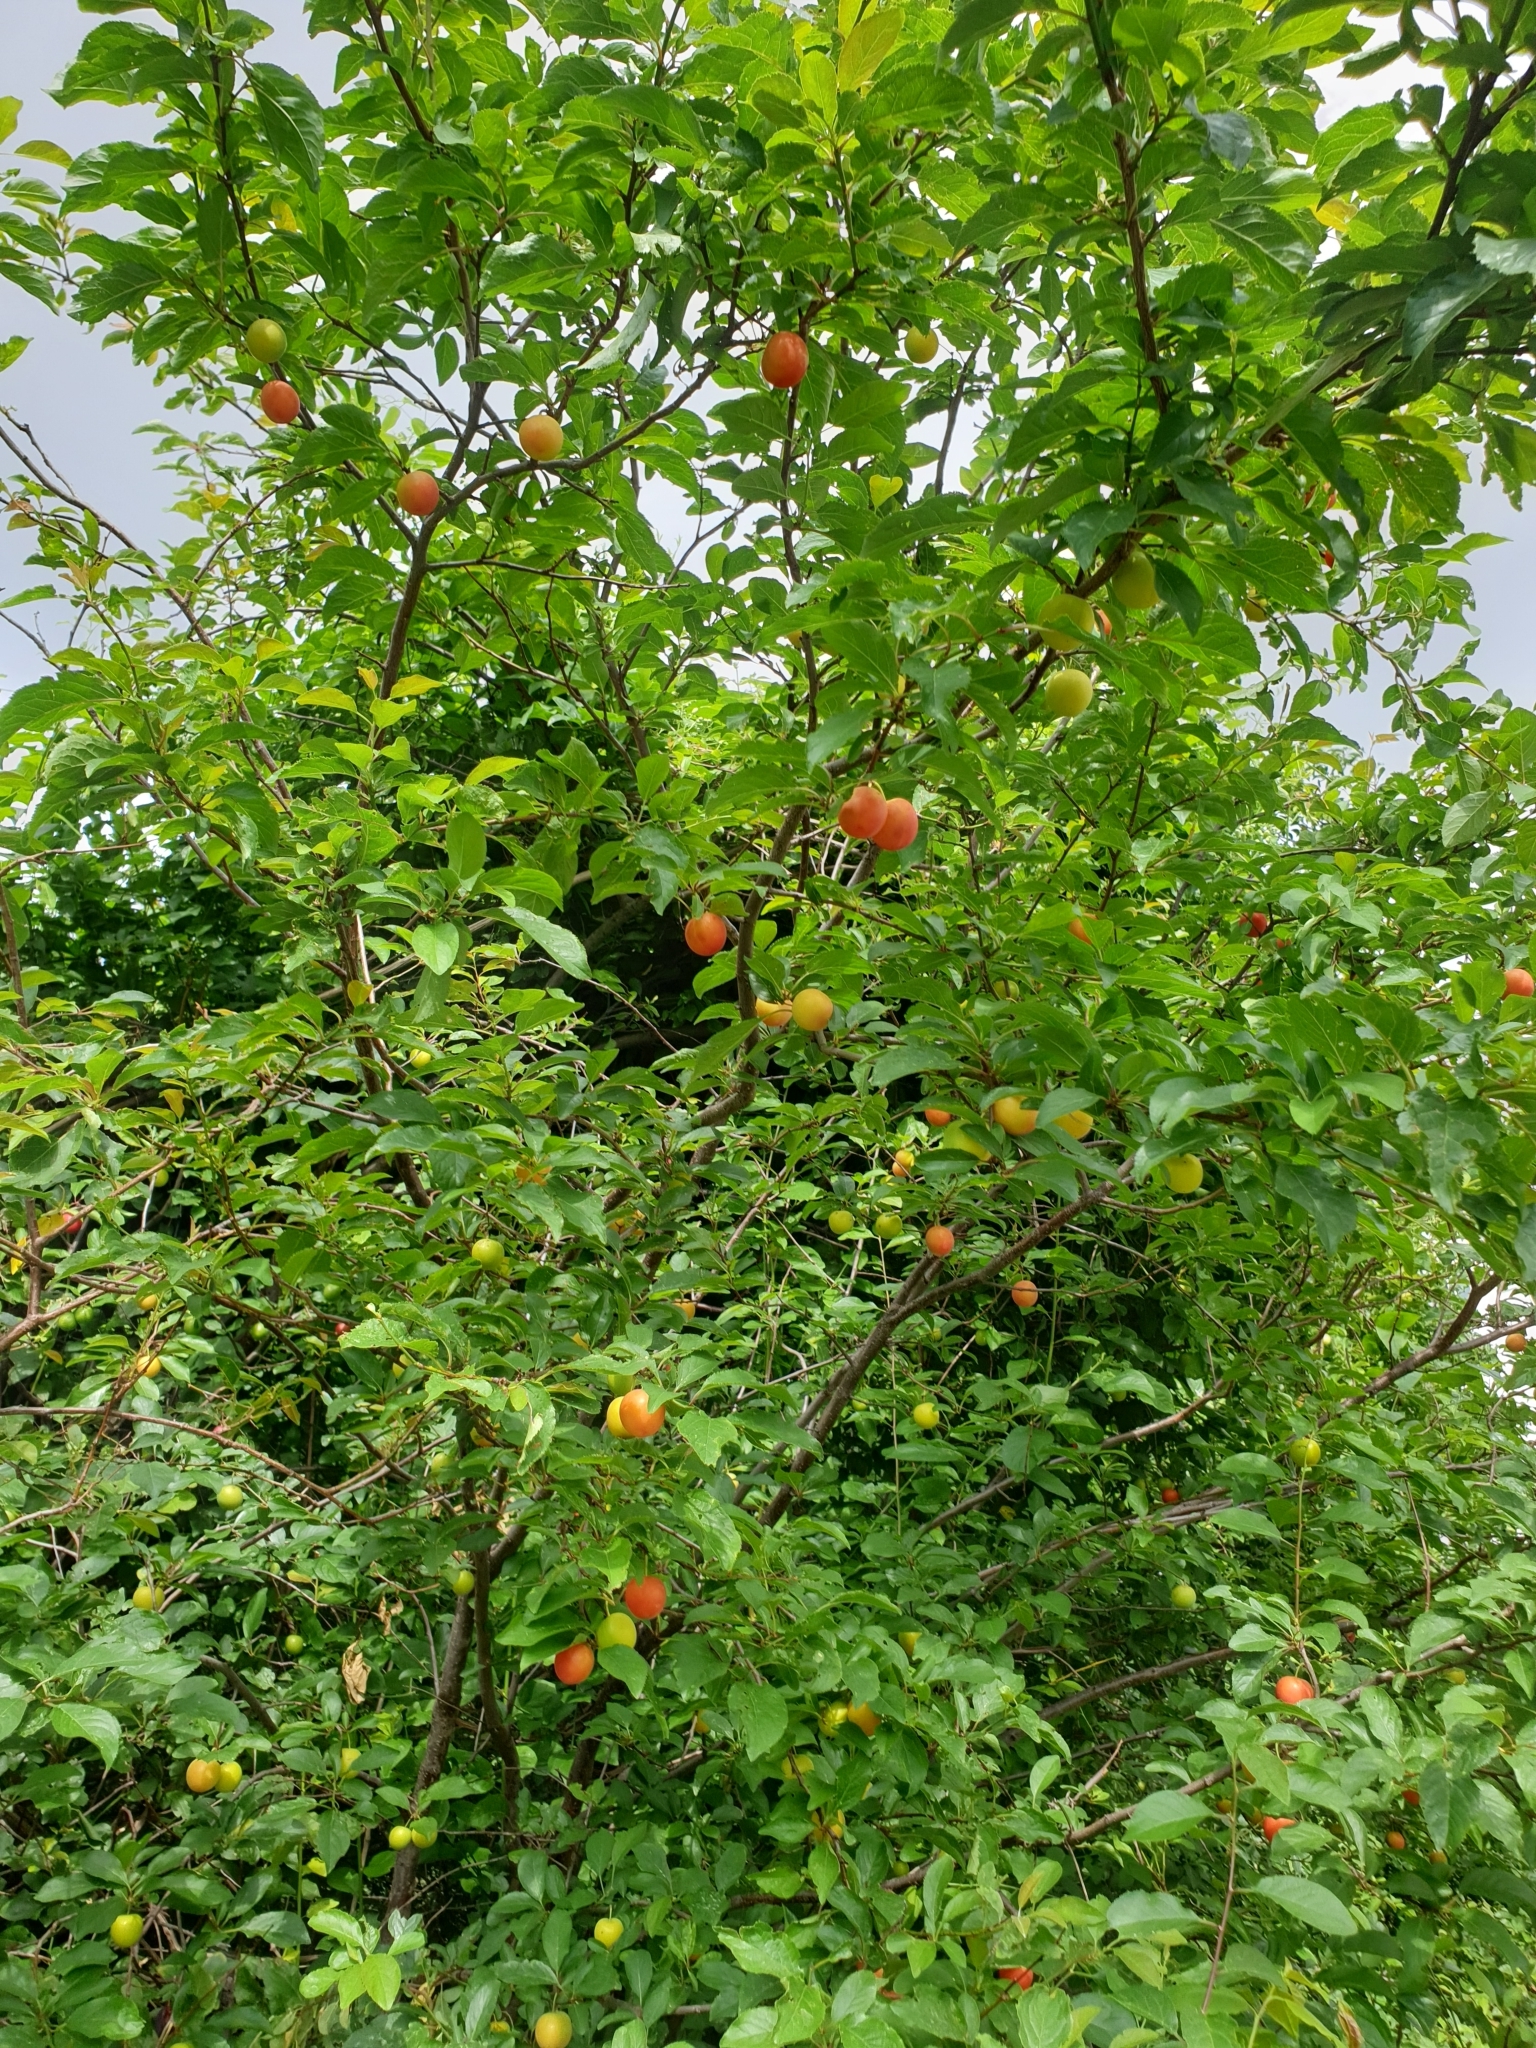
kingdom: Plantae
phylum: Tracheophyta
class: Magnoliopsida
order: Rosales
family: Rosaceae
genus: Prunus
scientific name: Prunus cerasifera
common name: Cherry plum
